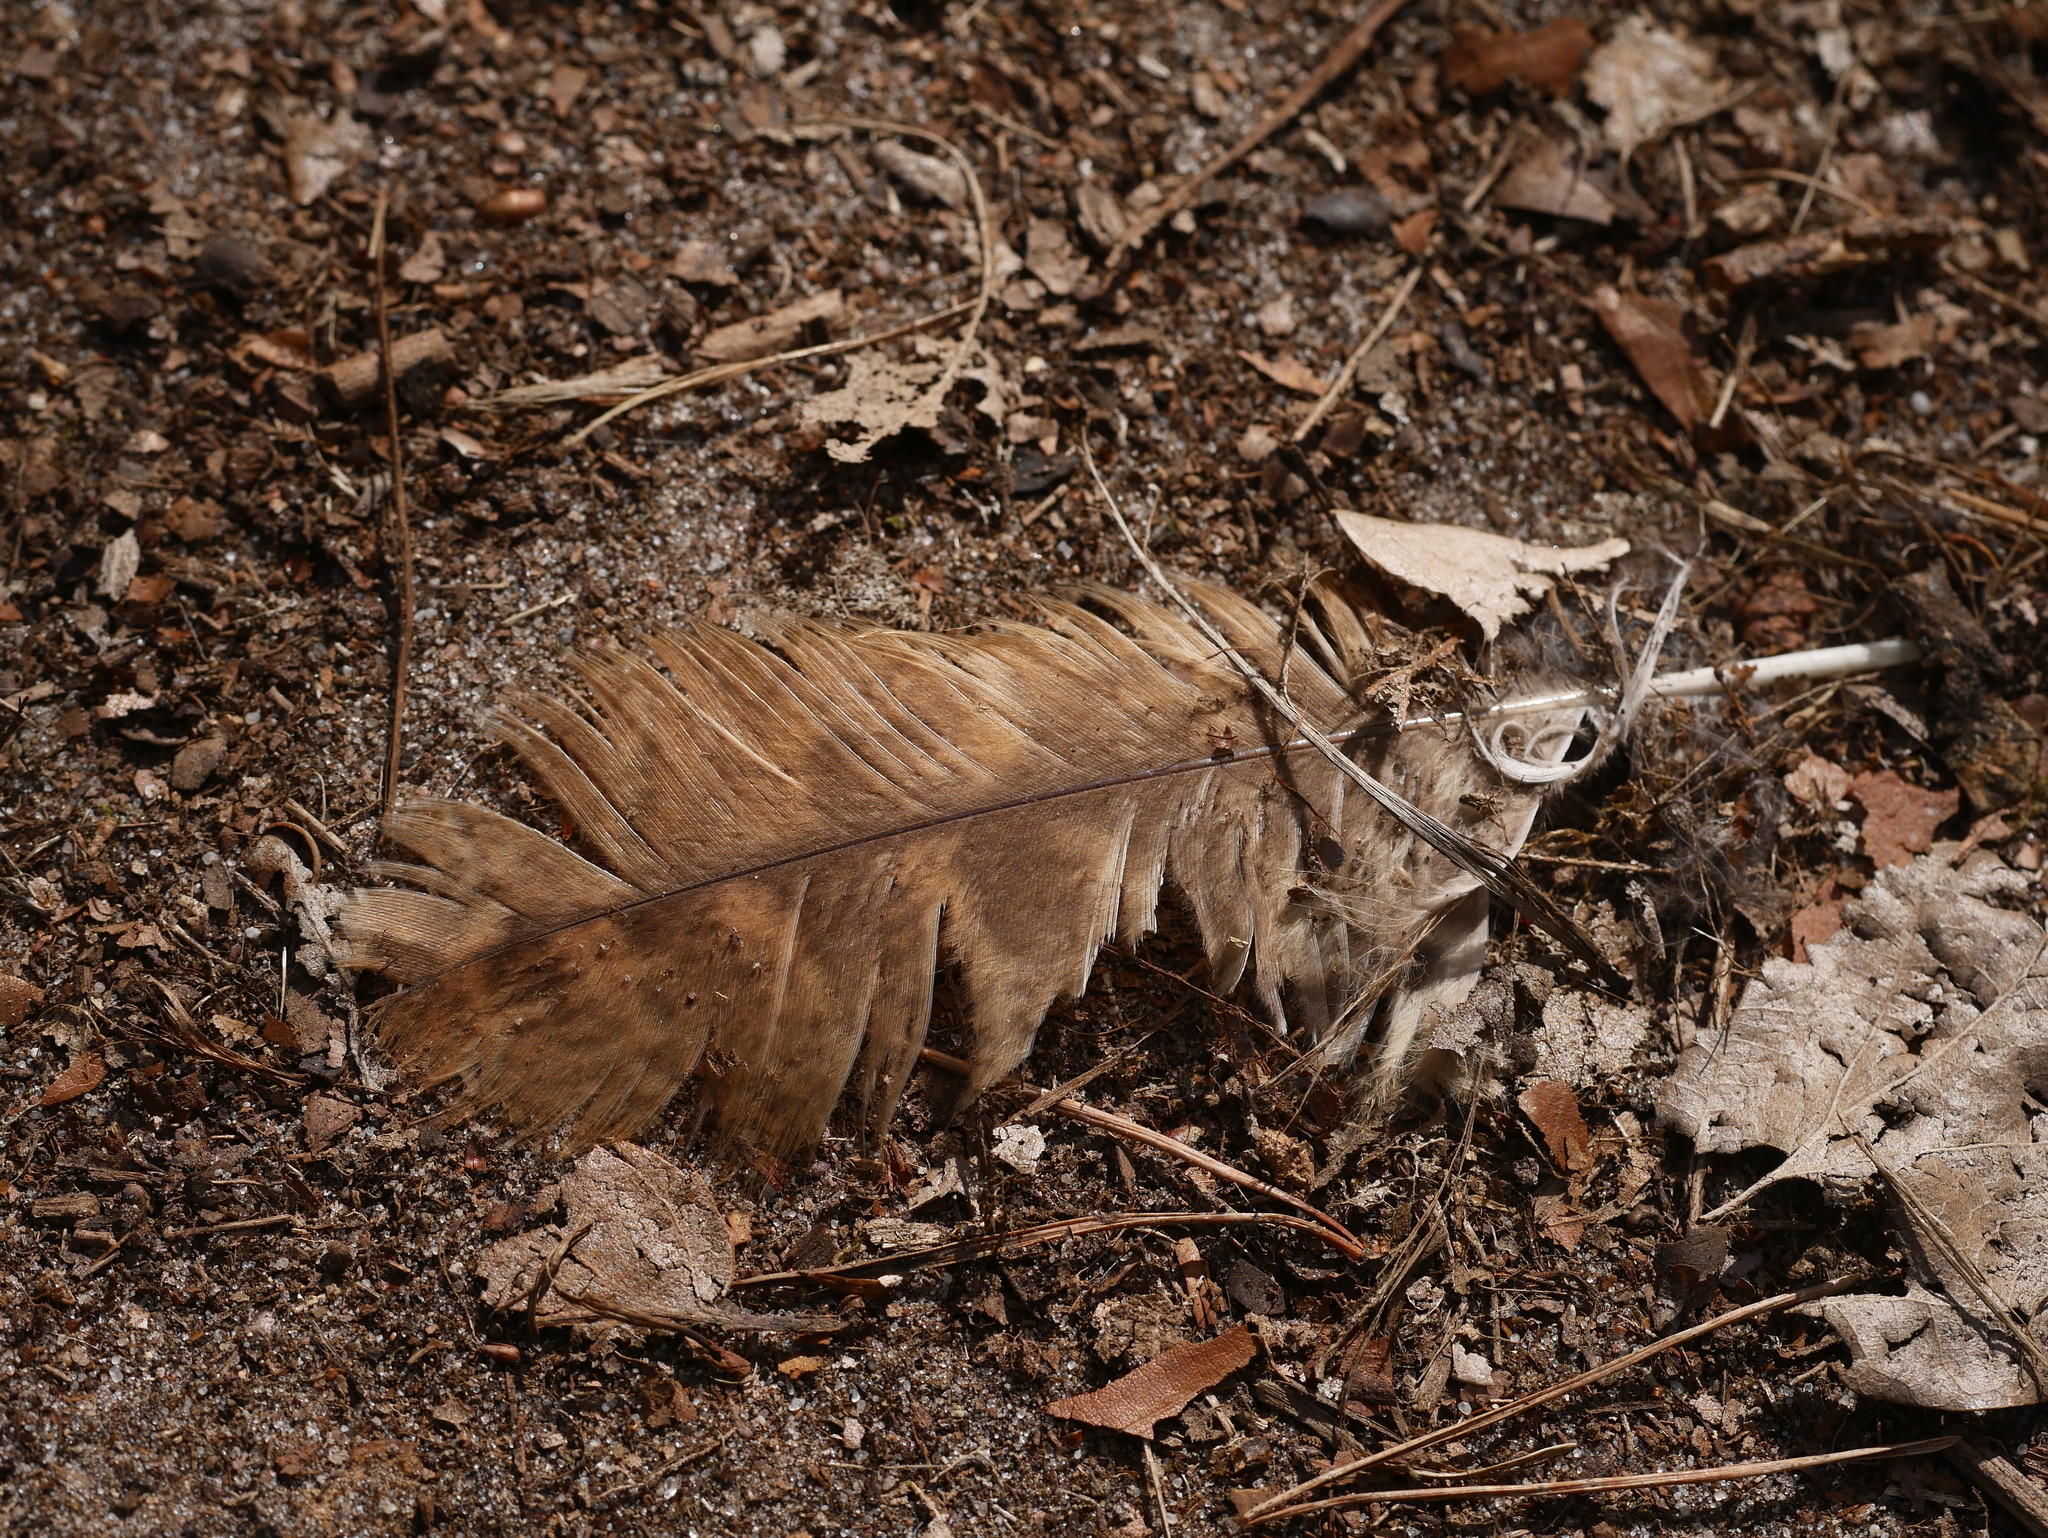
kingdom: Animalia
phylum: Chordata
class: Aves
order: Strigiformes
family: Strigidae
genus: Strix
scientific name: Strix aluco
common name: Tawny owl
